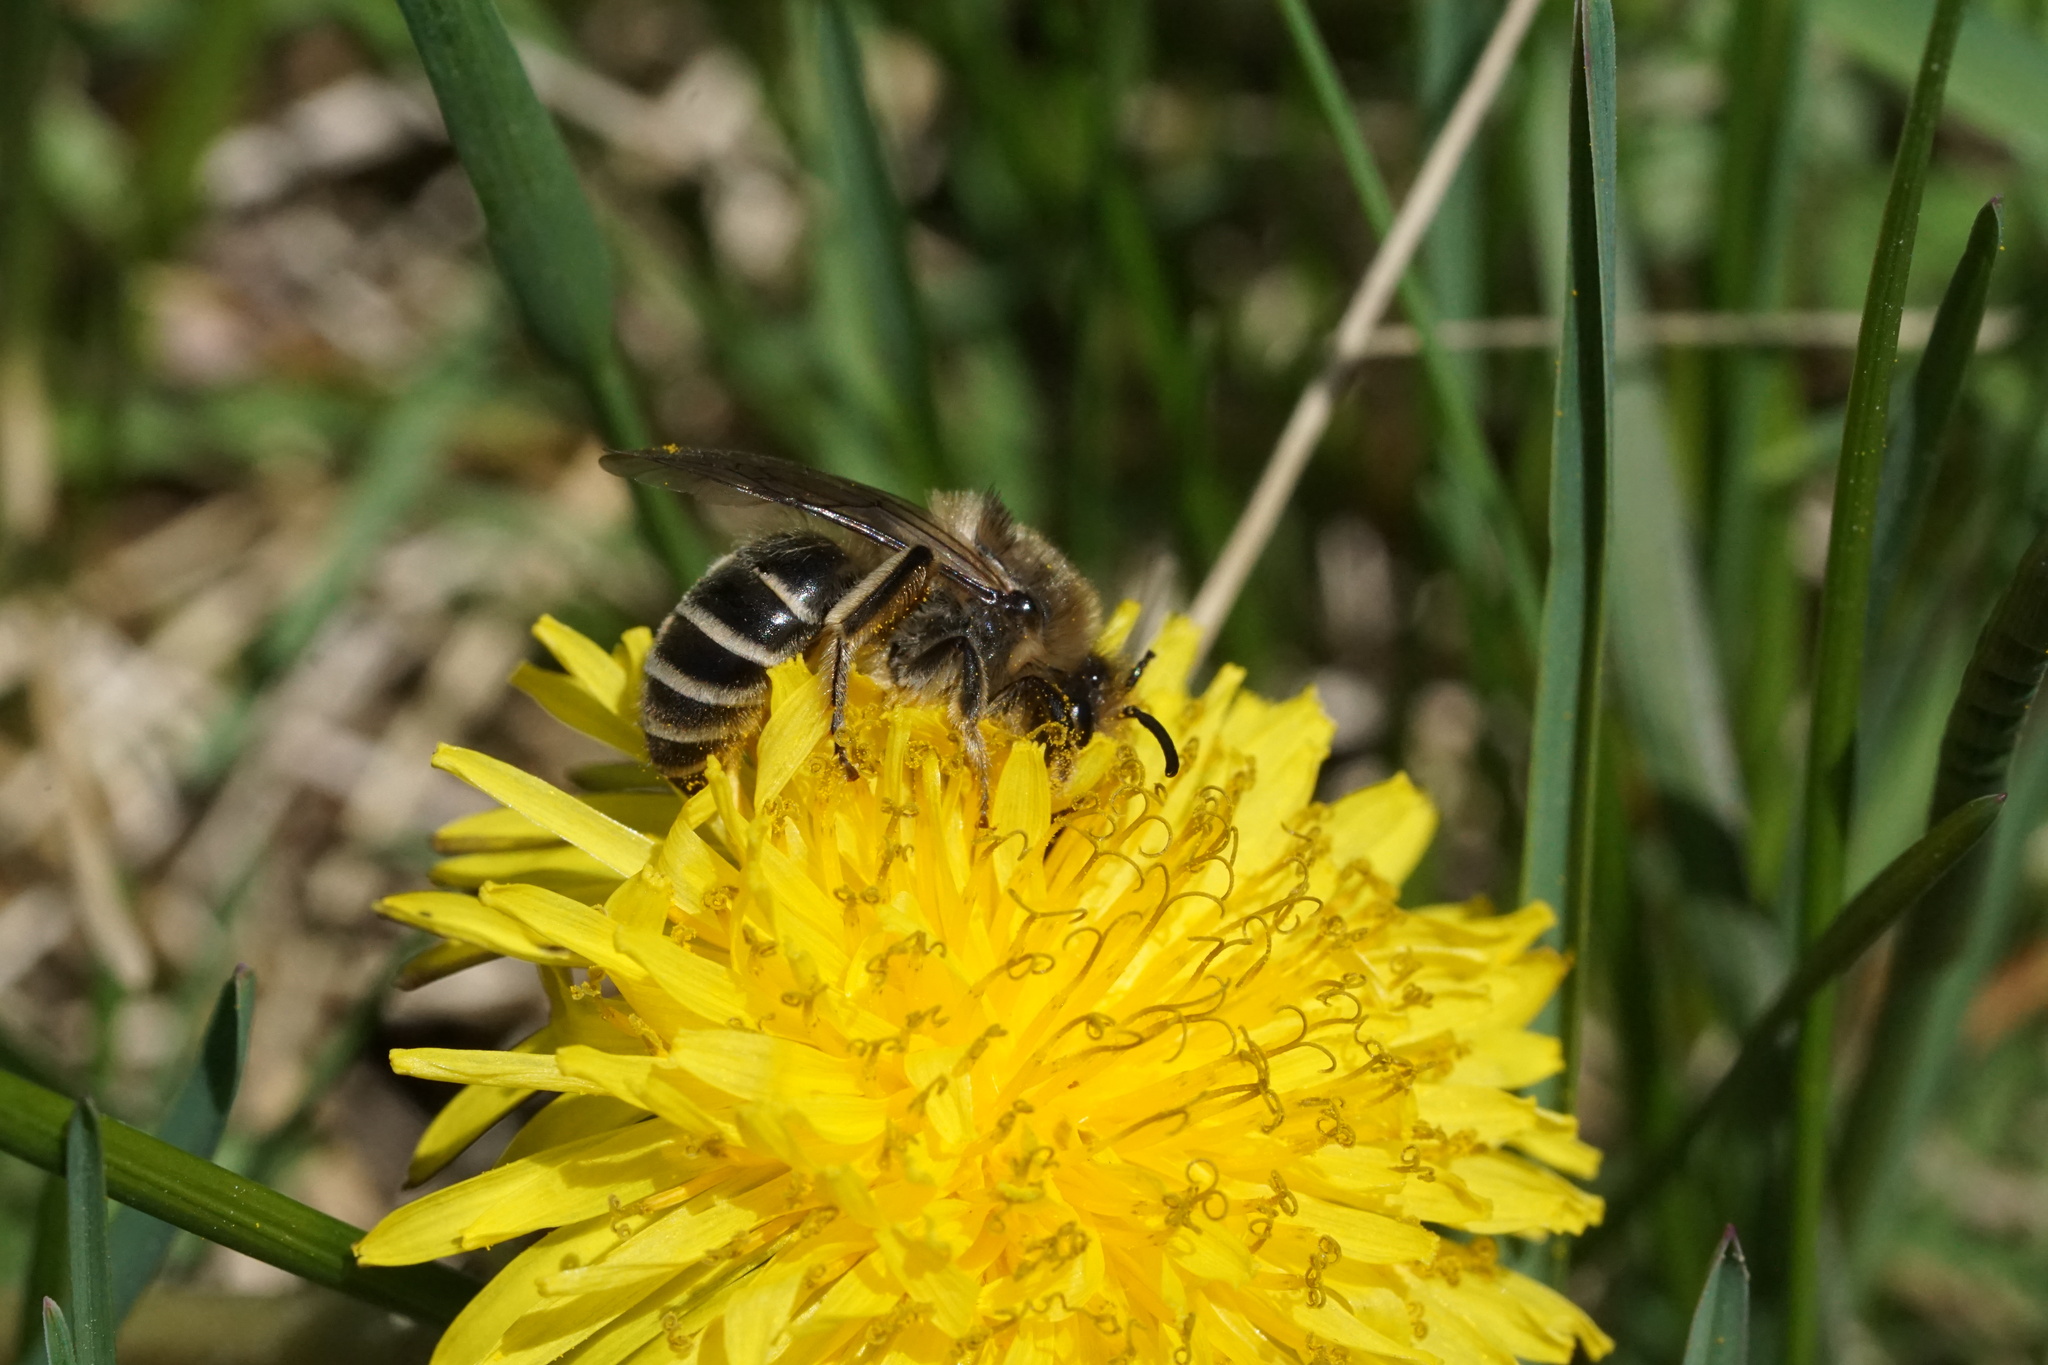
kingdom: Animalia
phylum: Arthropoda
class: Insecta
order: Hymenoptera
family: Colletidae
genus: Colletes
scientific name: Colletes inaequalis
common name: Unequal cellophane bee
